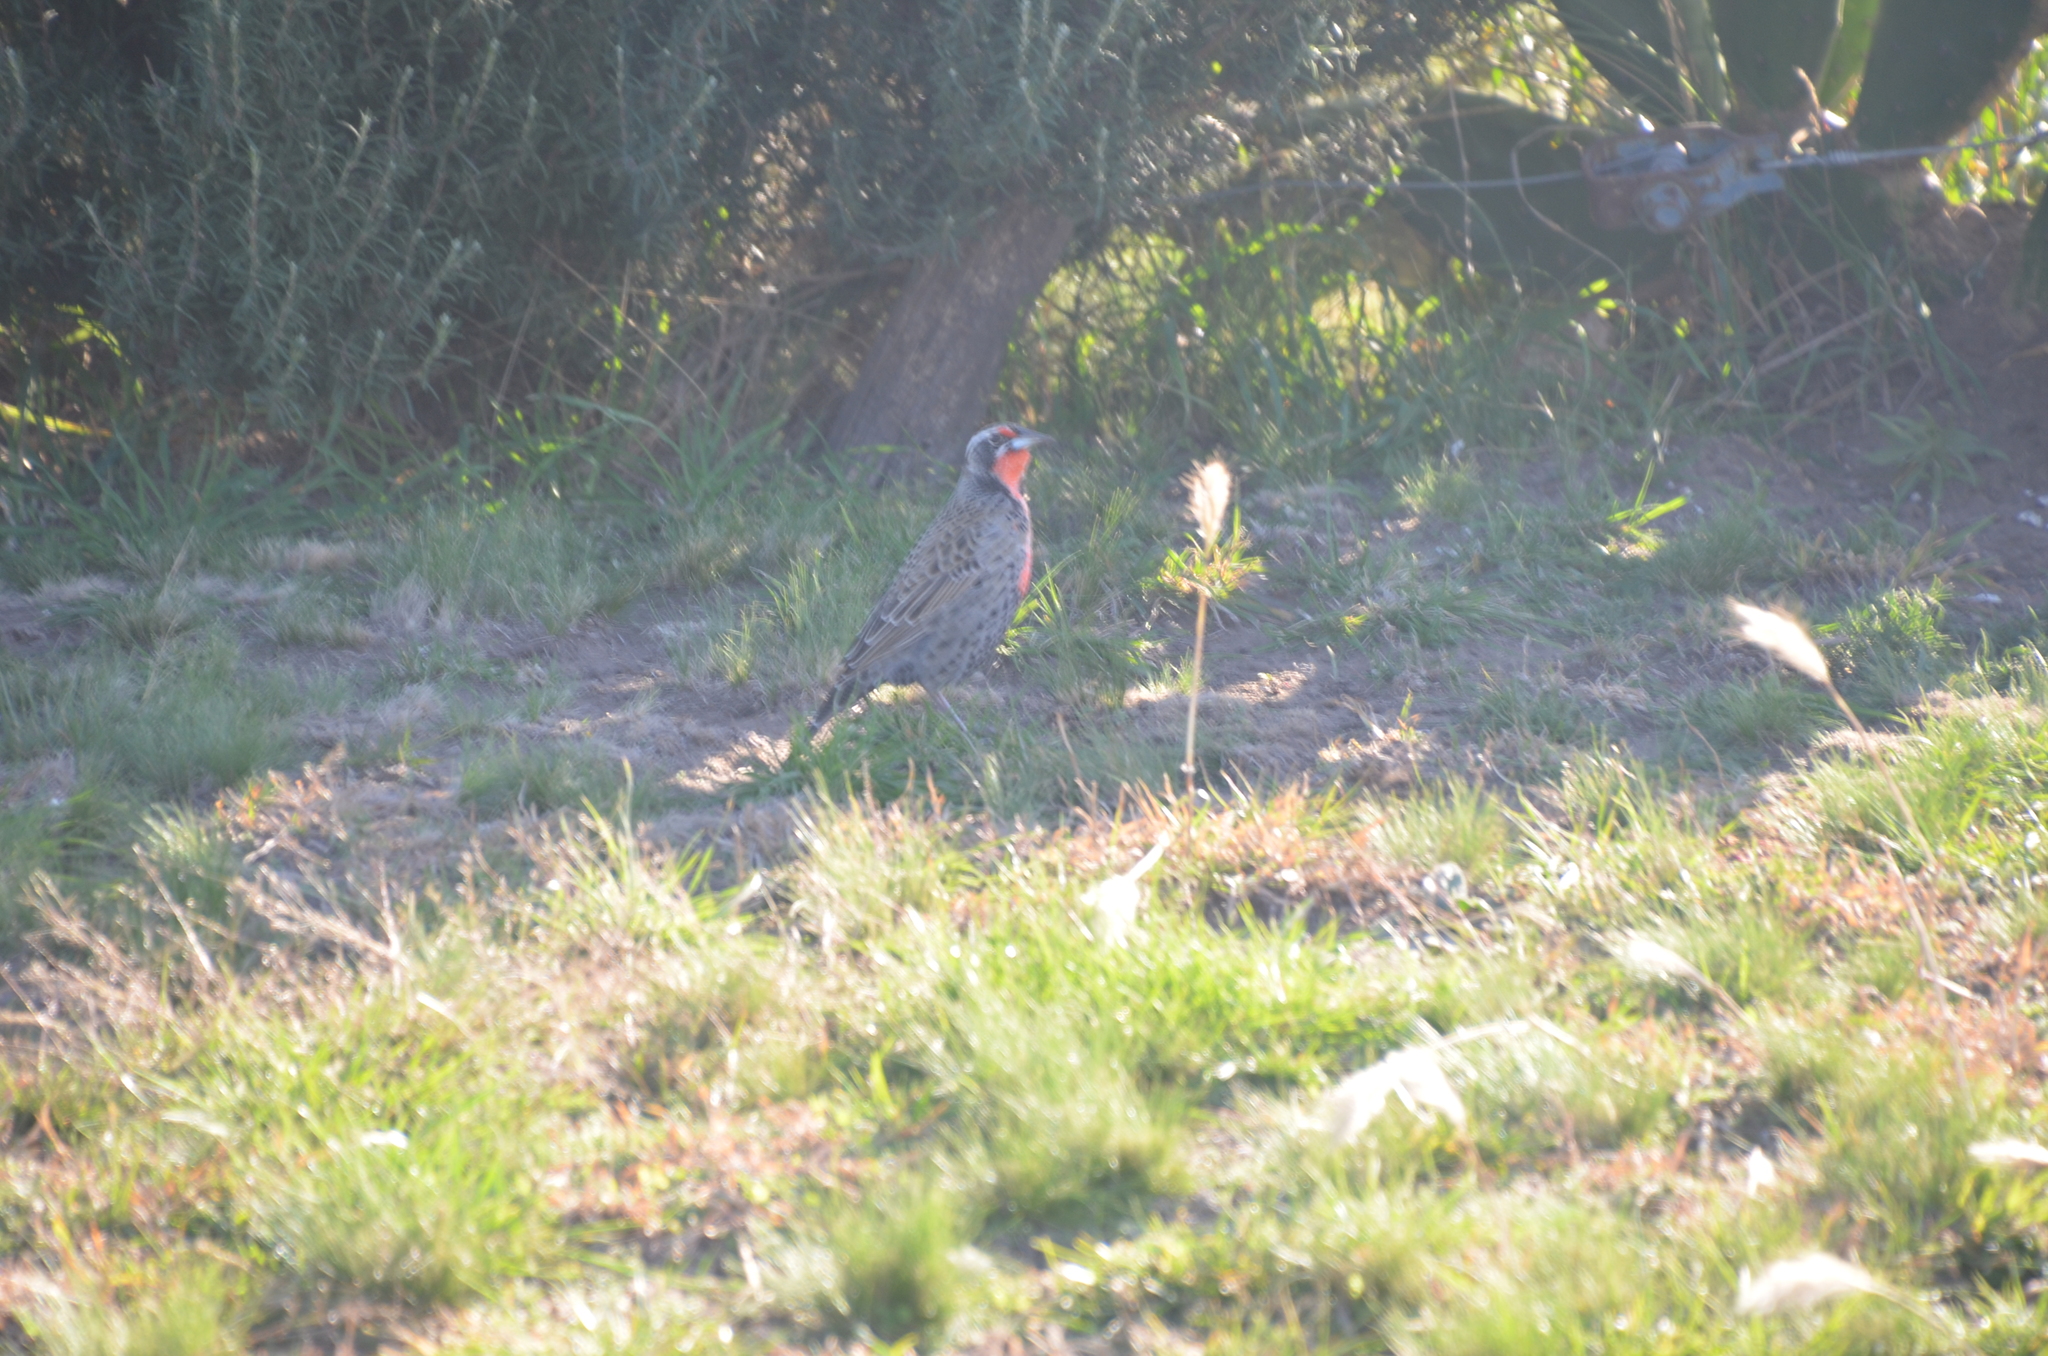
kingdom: Animalia
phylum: Chordata
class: Aves
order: Passeriformes
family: Icteridae
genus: Sturnella
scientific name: Sturnella loyca
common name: Long-tailed meadowlark
